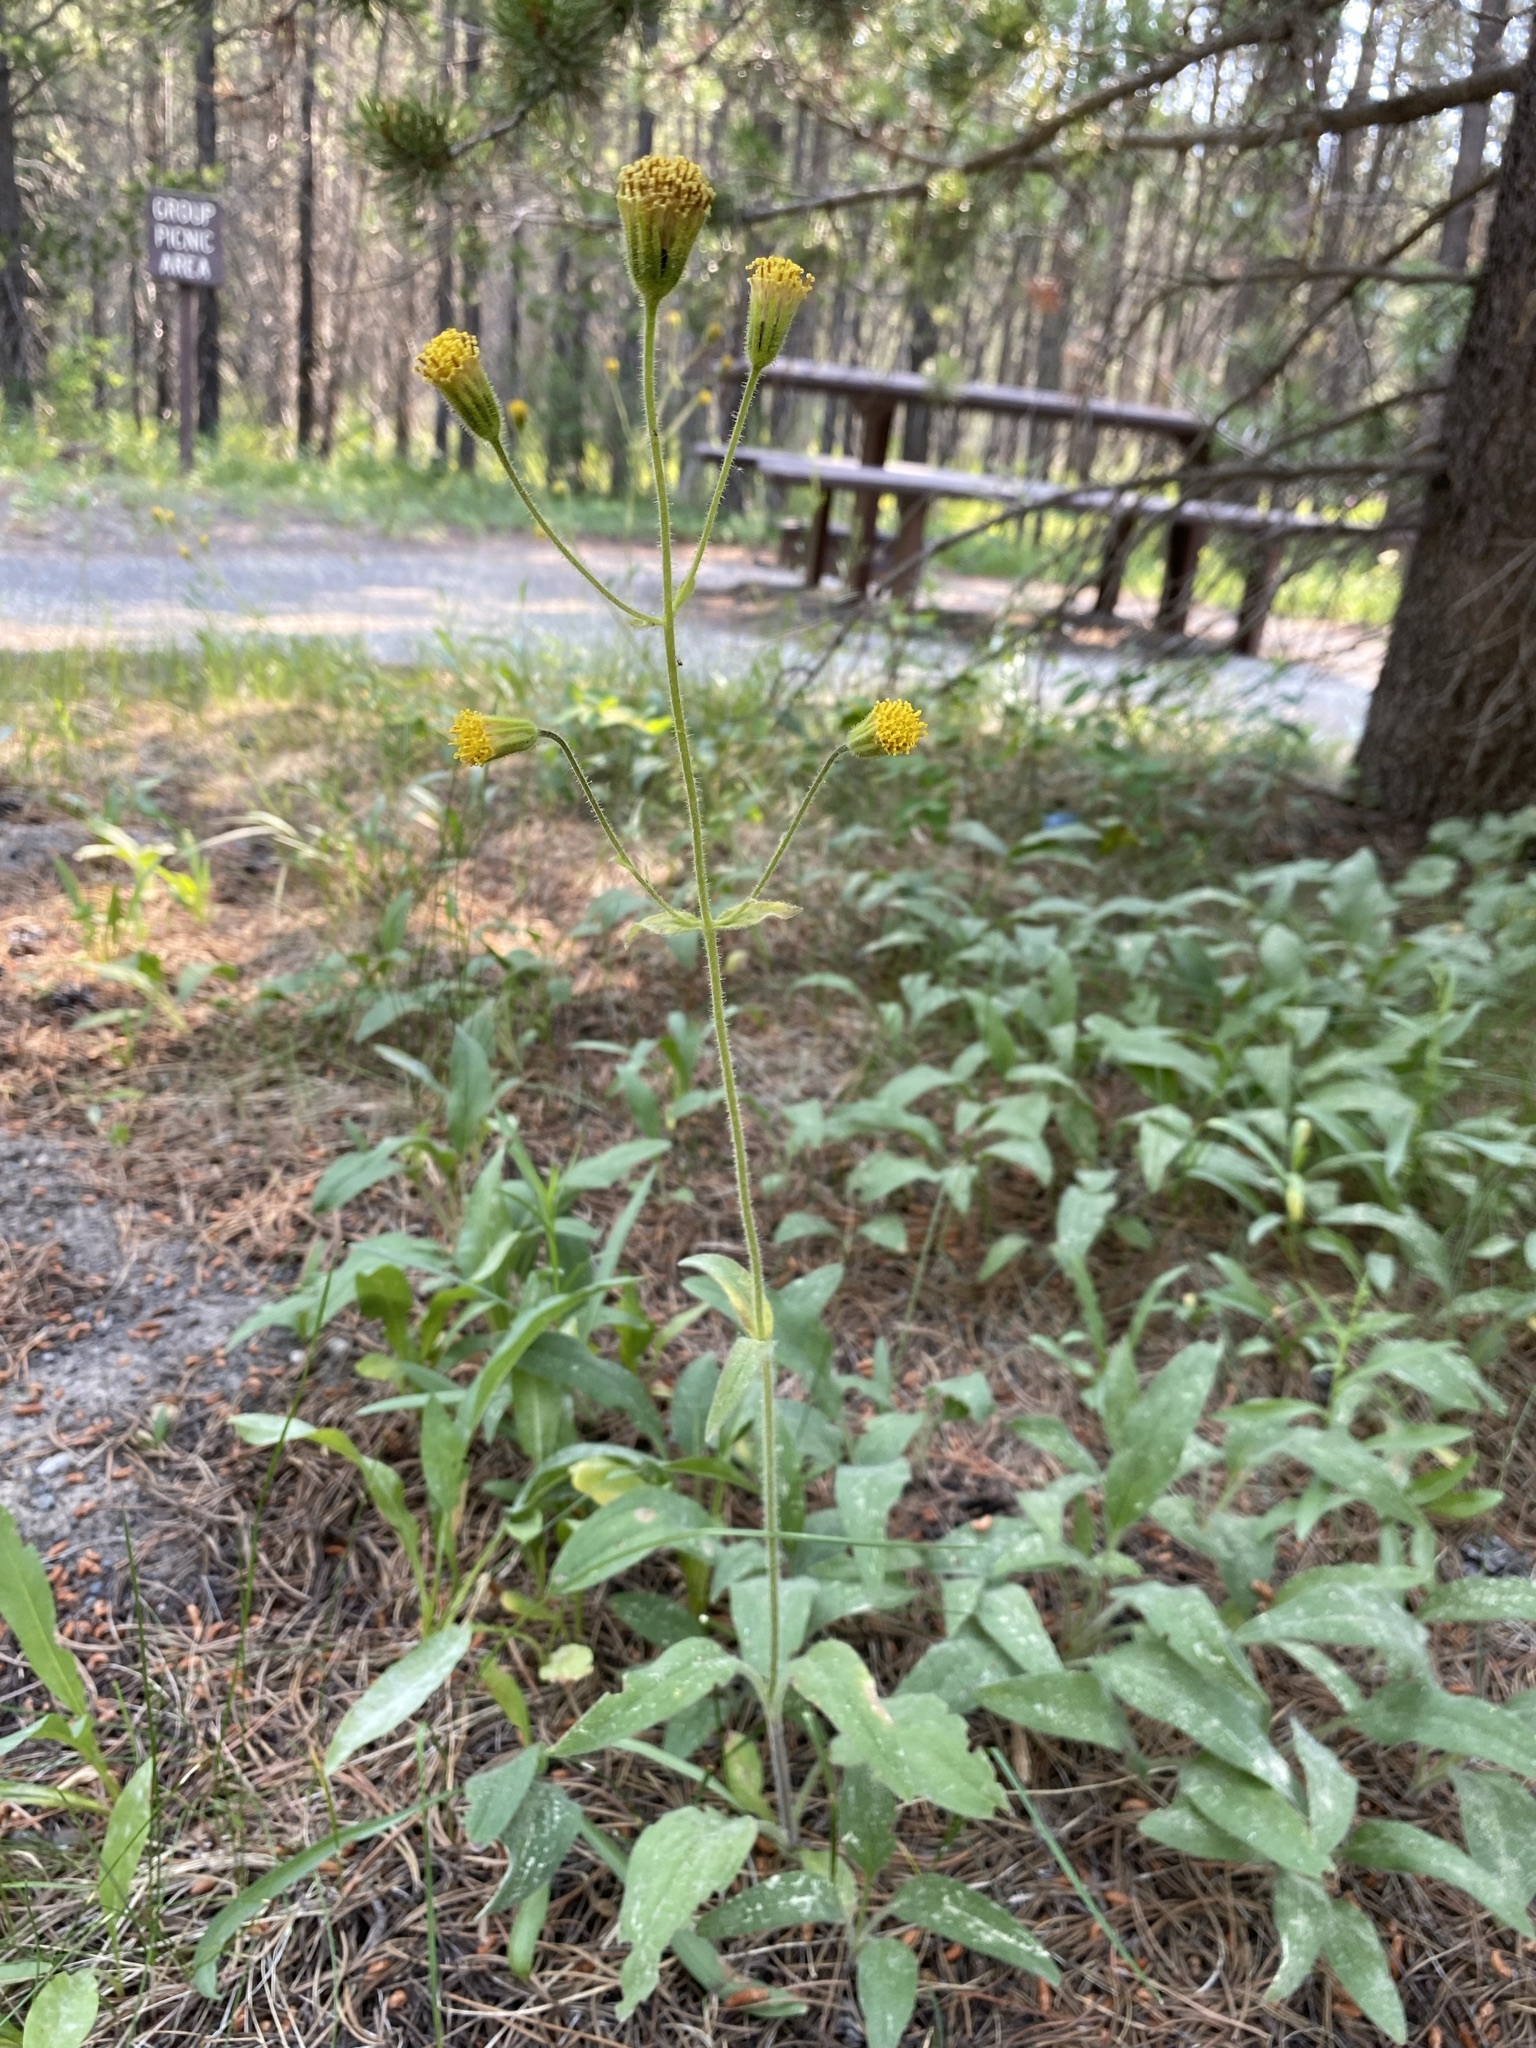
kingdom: Plantae
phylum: Tracheophyta
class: Magnoliopsida
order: Asterales
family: Asteraceae
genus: Arnica
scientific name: Arnica parryi
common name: Parry's arnica
